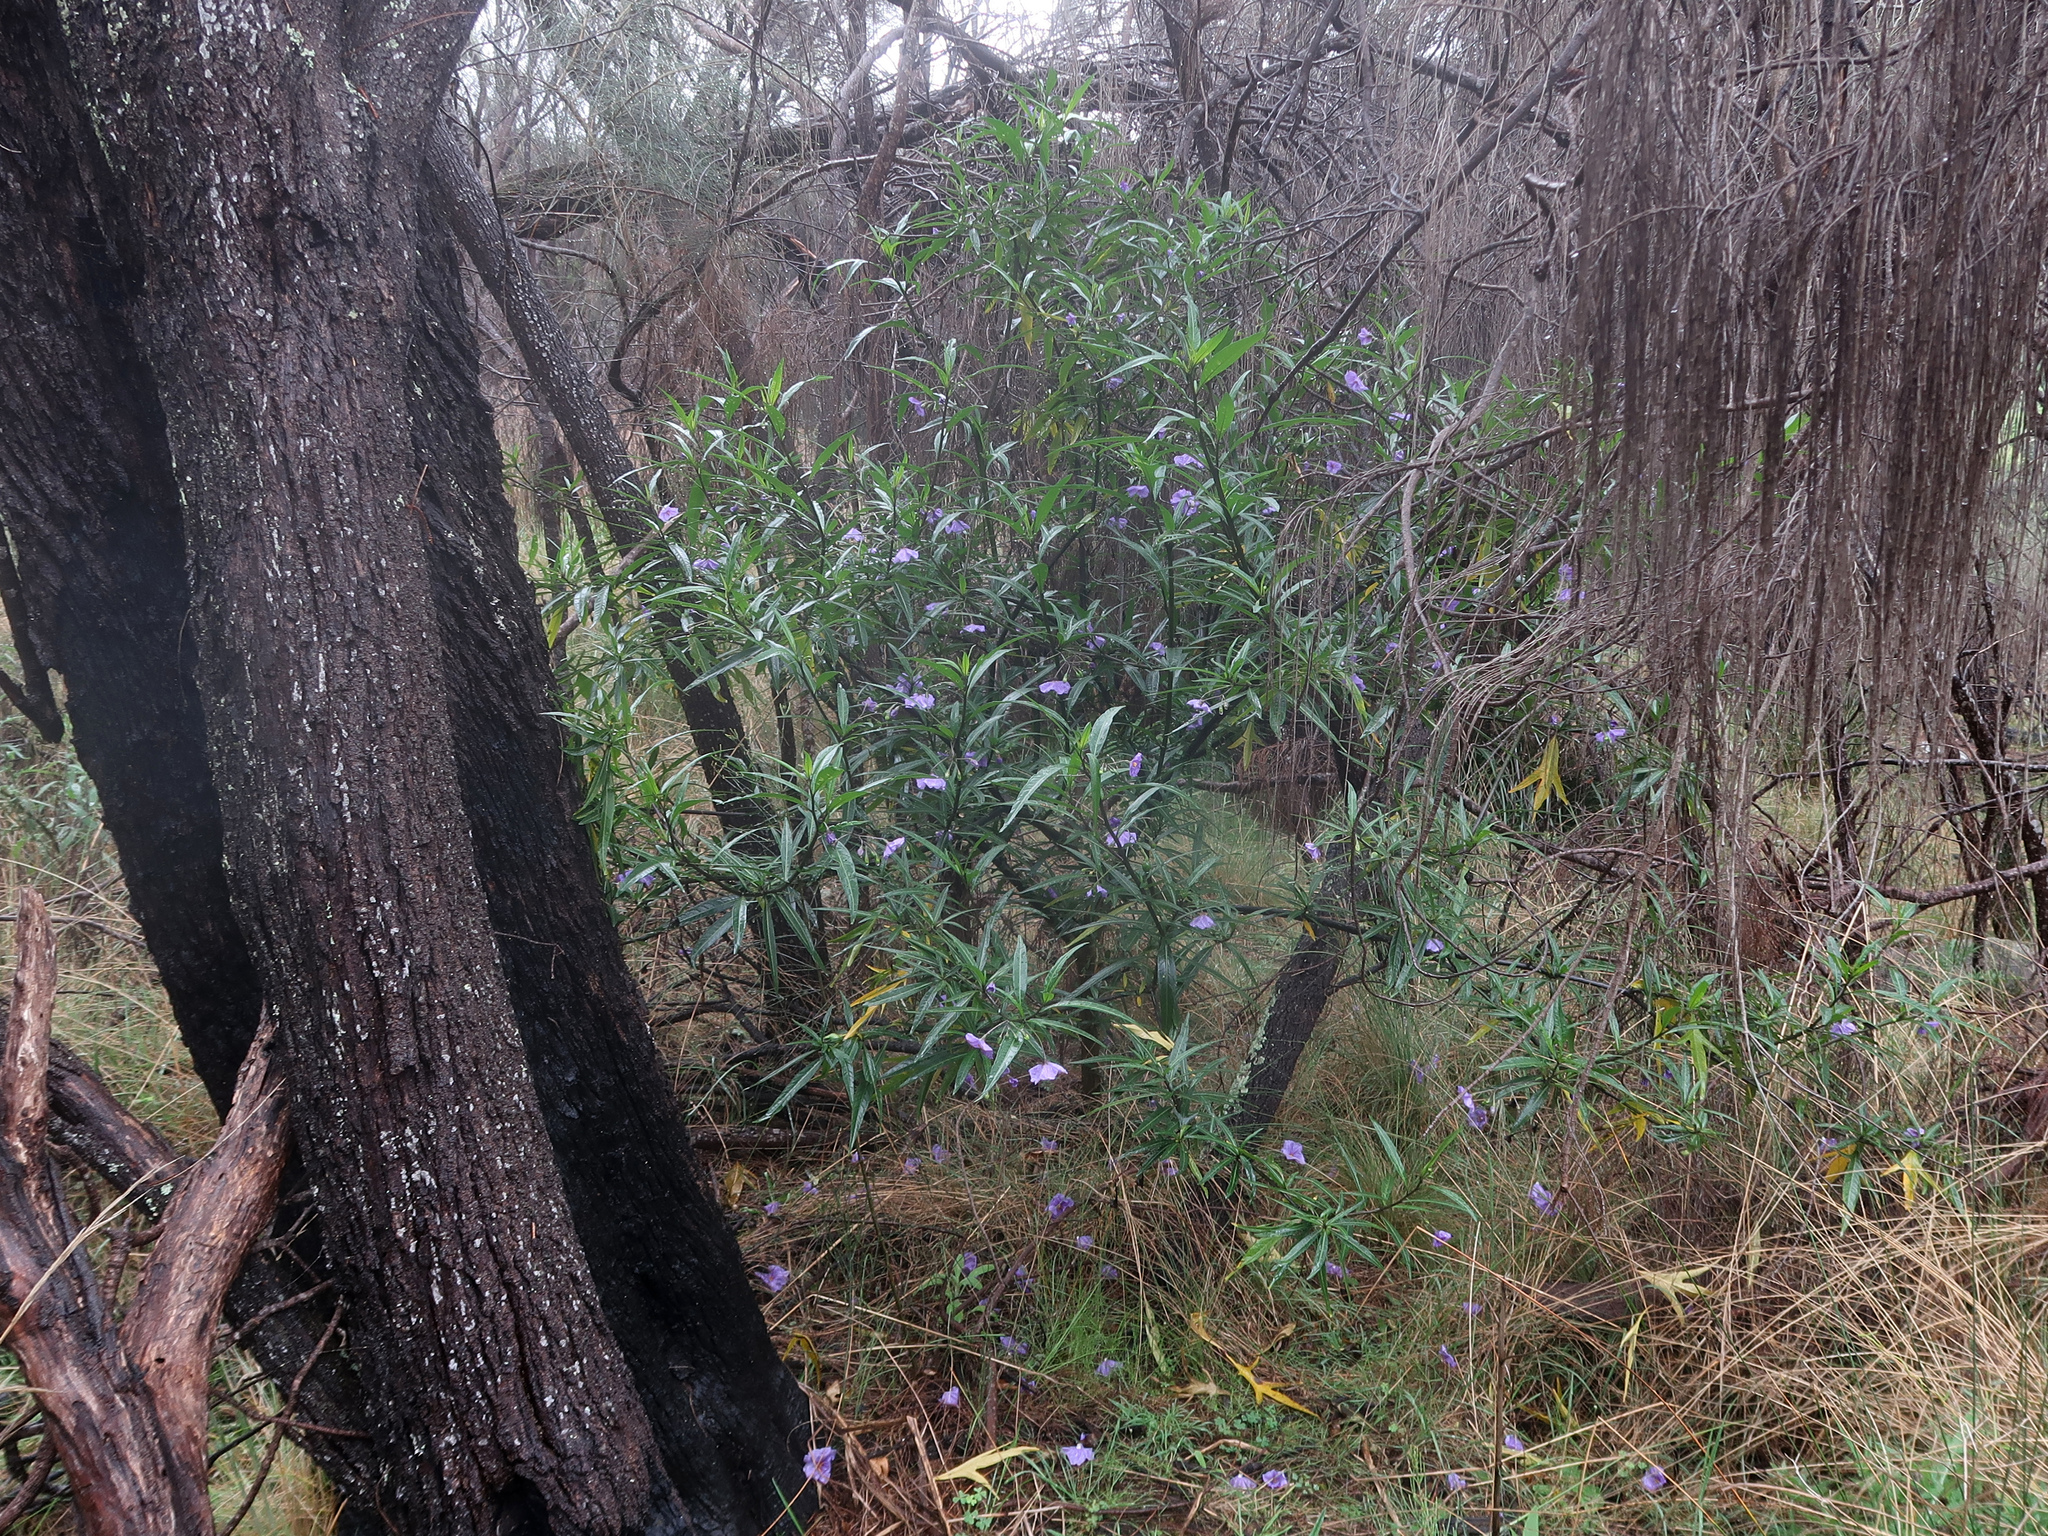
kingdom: Plantae
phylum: Tracheophyta
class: Magnoliopsida
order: Solanales
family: Solanaceae
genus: Solanum
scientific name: Solanum laciniatum
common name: Kangaroo-apple
